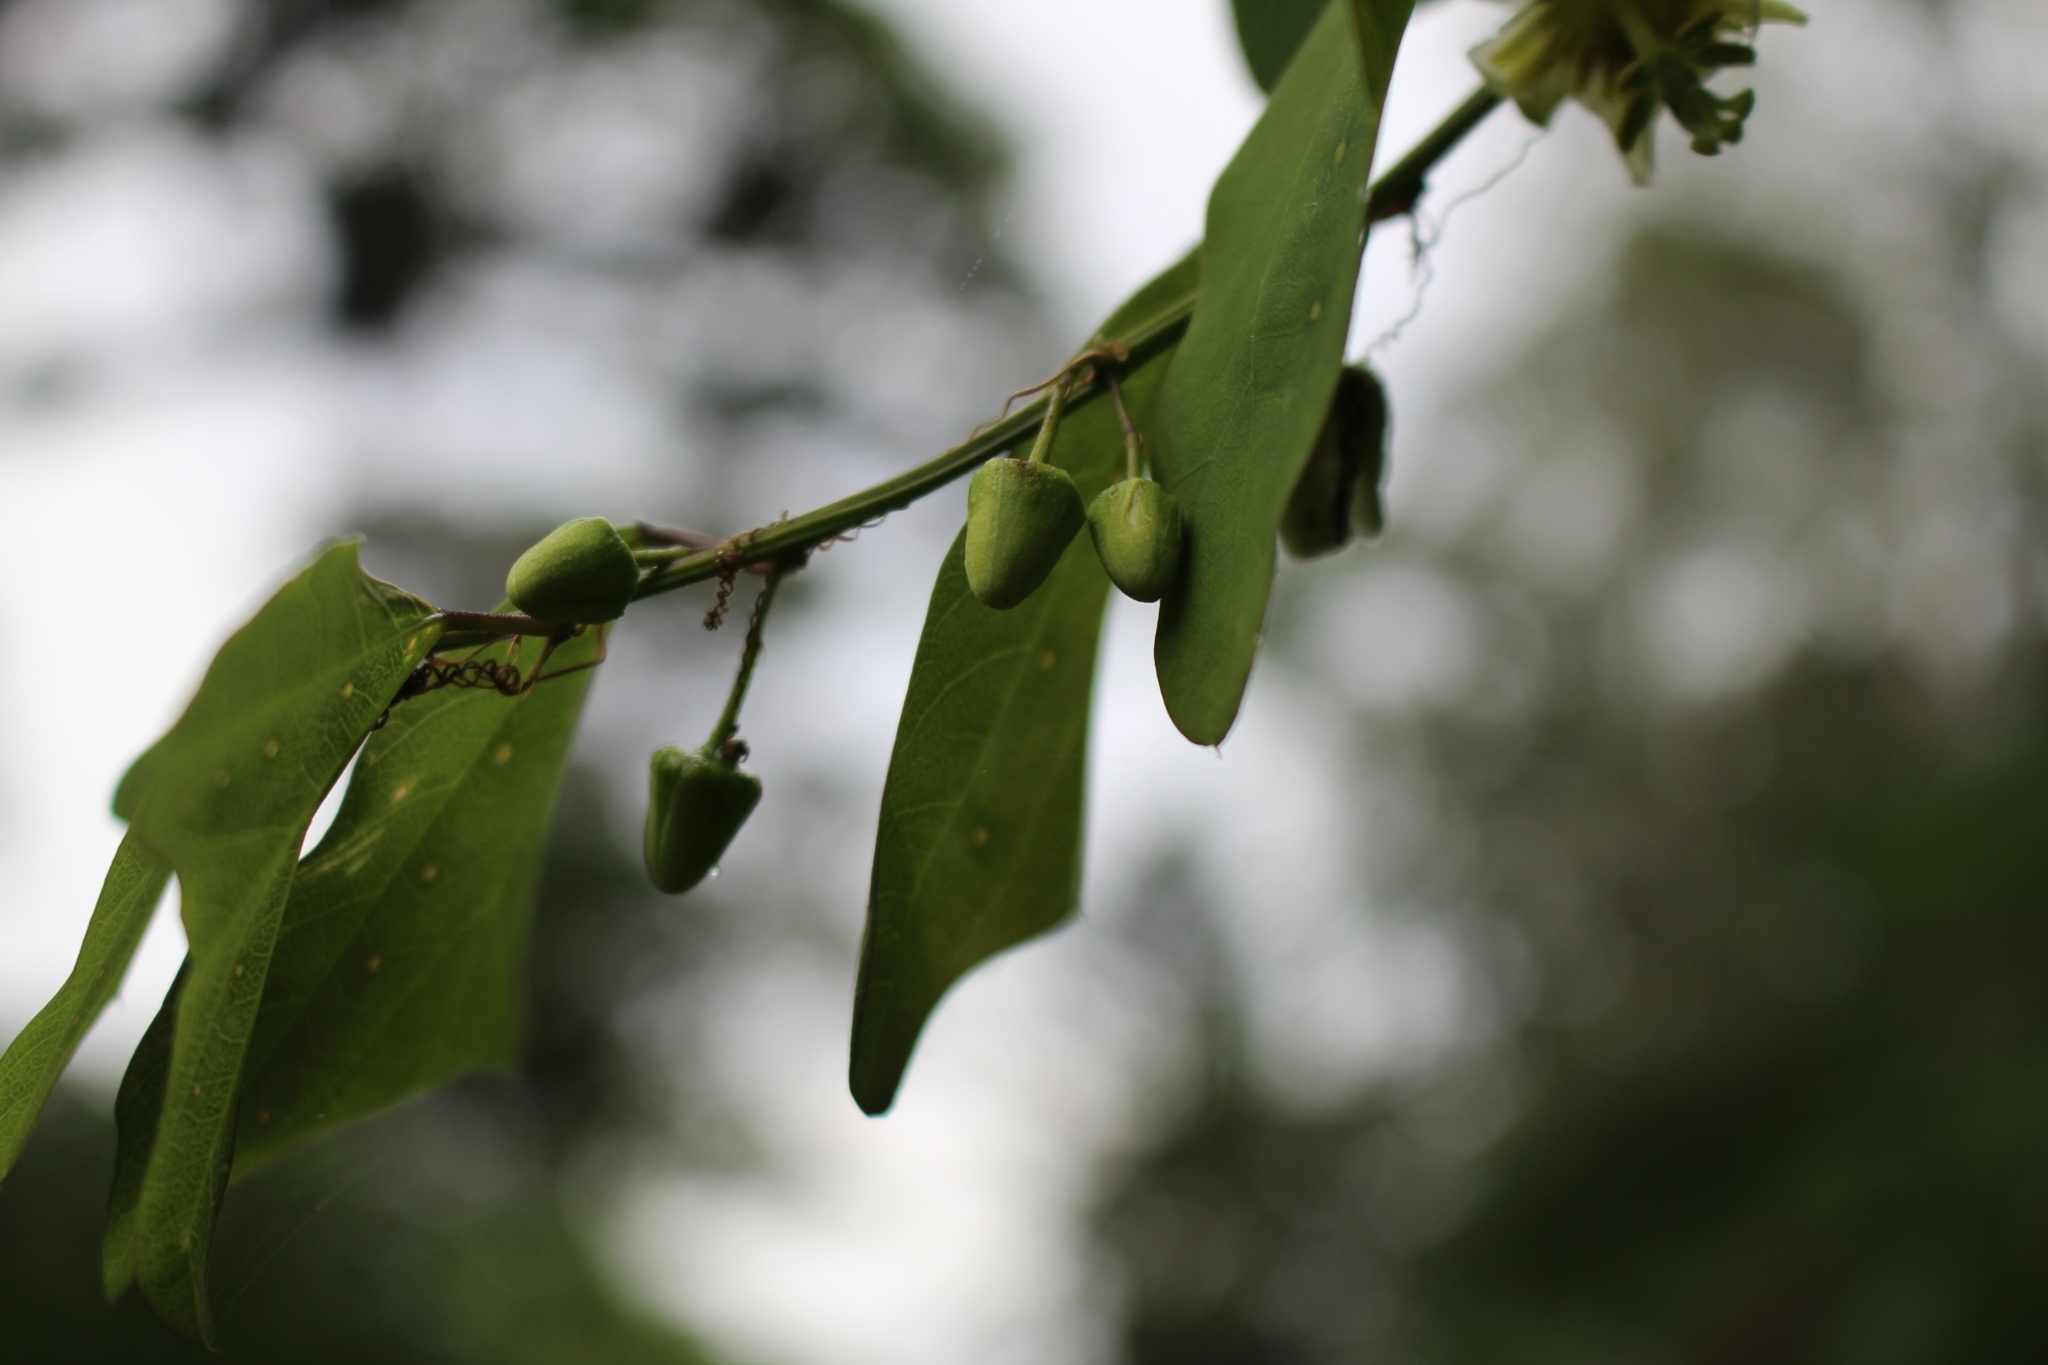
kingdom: Plantae
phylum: Tracheophyta
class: Magnoliopsida
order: Malpighiales
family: Passifloraceae
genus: Passiflora
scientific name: Passiflora biflora
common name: Twoflower passionflower
